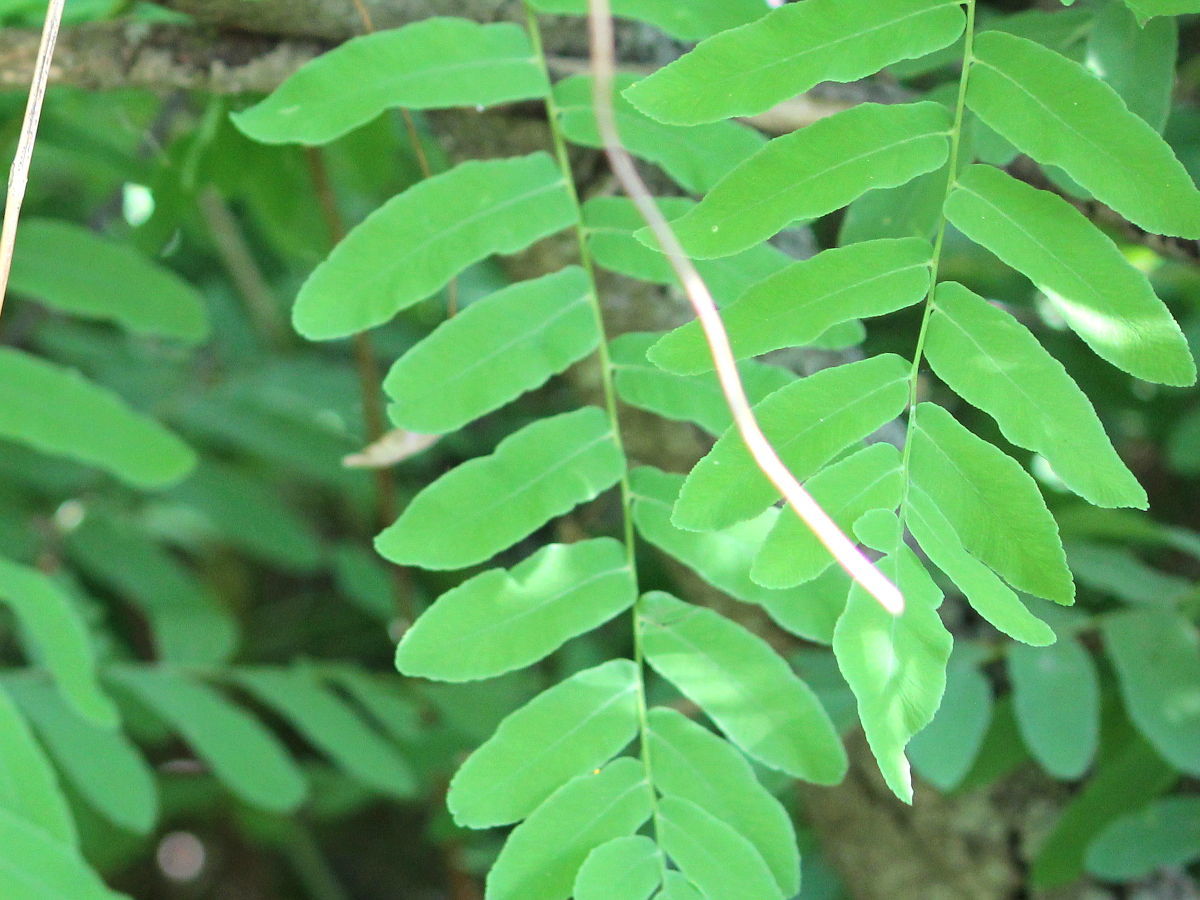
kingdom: Plantae
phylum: Tracheophyta
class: Polypodiopsida
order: Osmundales
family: Osmundaceae
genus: Osmunda
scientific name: Osmunda spectabilis
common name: American royal fern
